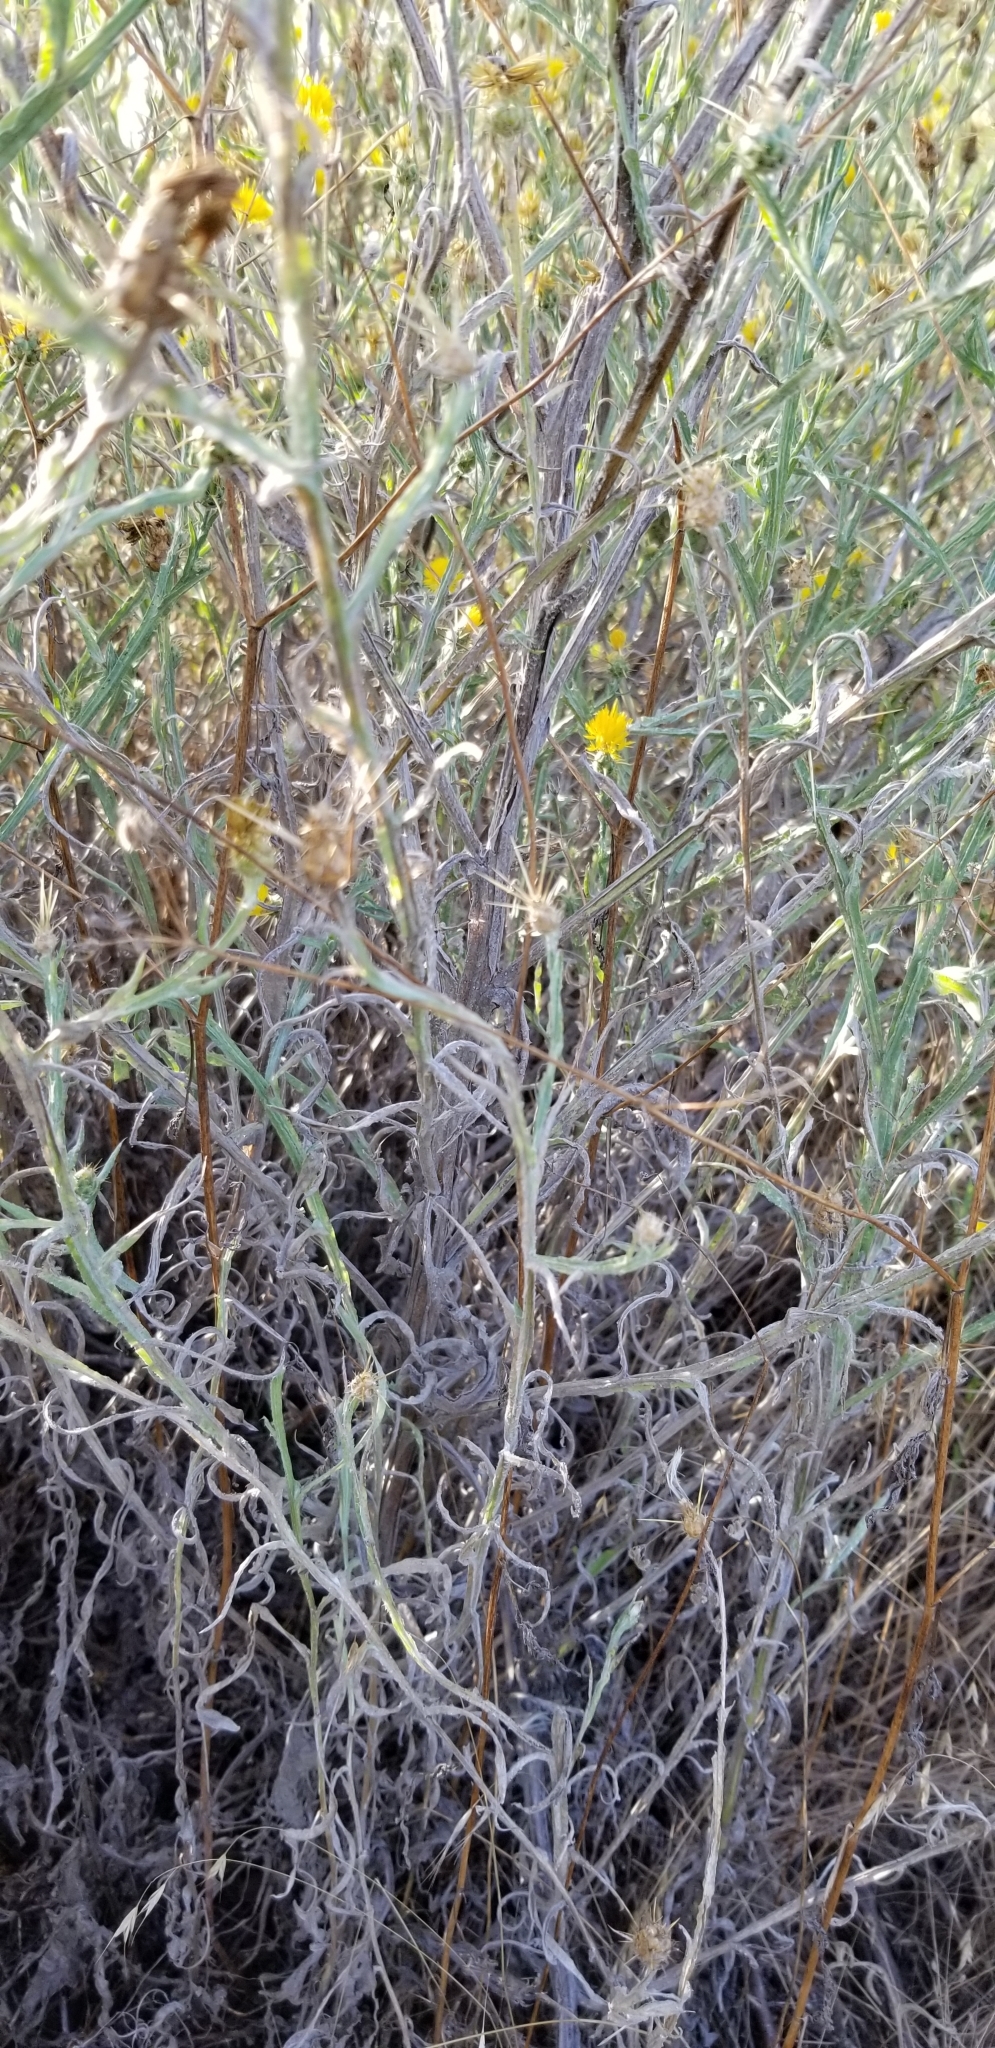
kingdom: Plantae
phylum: Tracheophyta
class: Magnoliopsida
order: Asterales
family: Asteraceae
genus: Centaurea
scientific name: Centaurea solstitialis
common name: Yellow star-thistle
